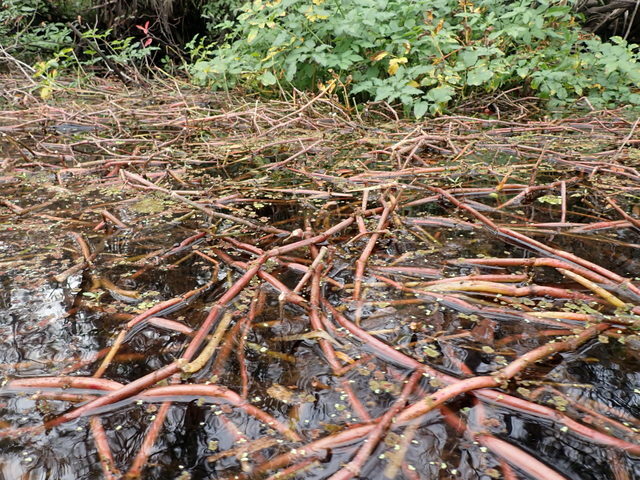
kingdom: Plantae
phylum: Tracheophyta
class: Magnoliopsida
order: Caryophyllales
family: Amaranthaceae
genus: Alternanthera
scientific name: Alternanthera philoxeroides
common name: Alligatorweed
